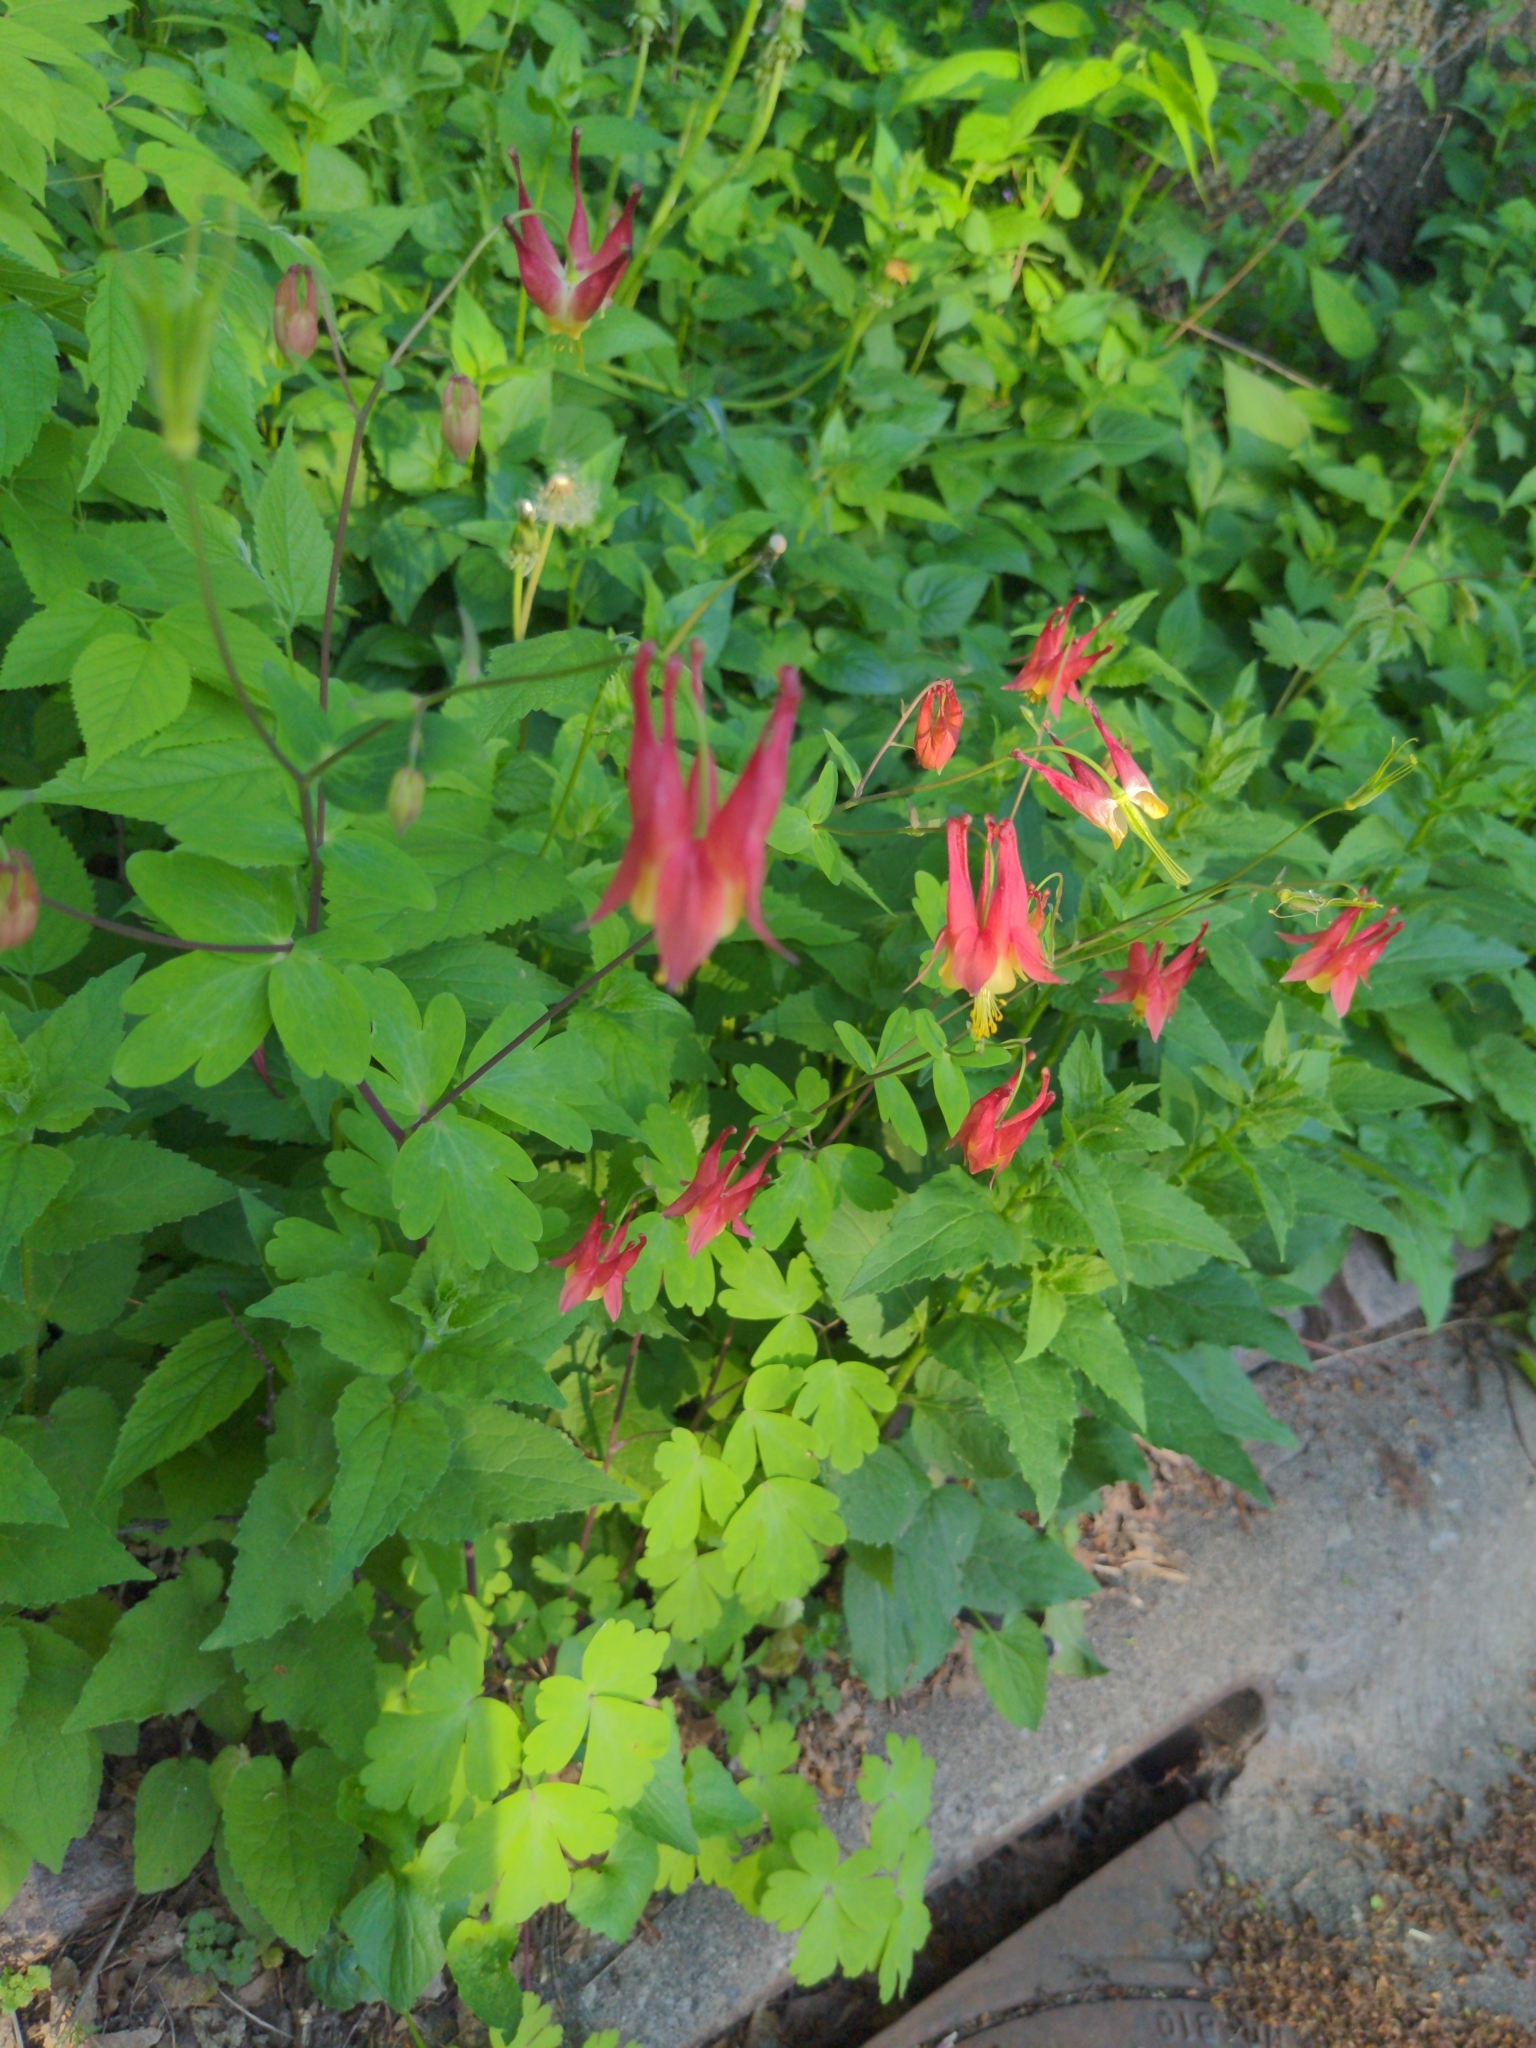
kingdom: Plantae
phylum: Tracheophyta
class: Magnoliopsida
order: Ranunculales
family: Ranunculaceae
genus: Aquilegia
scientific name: Aquilegia canadensis
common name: American columbine
